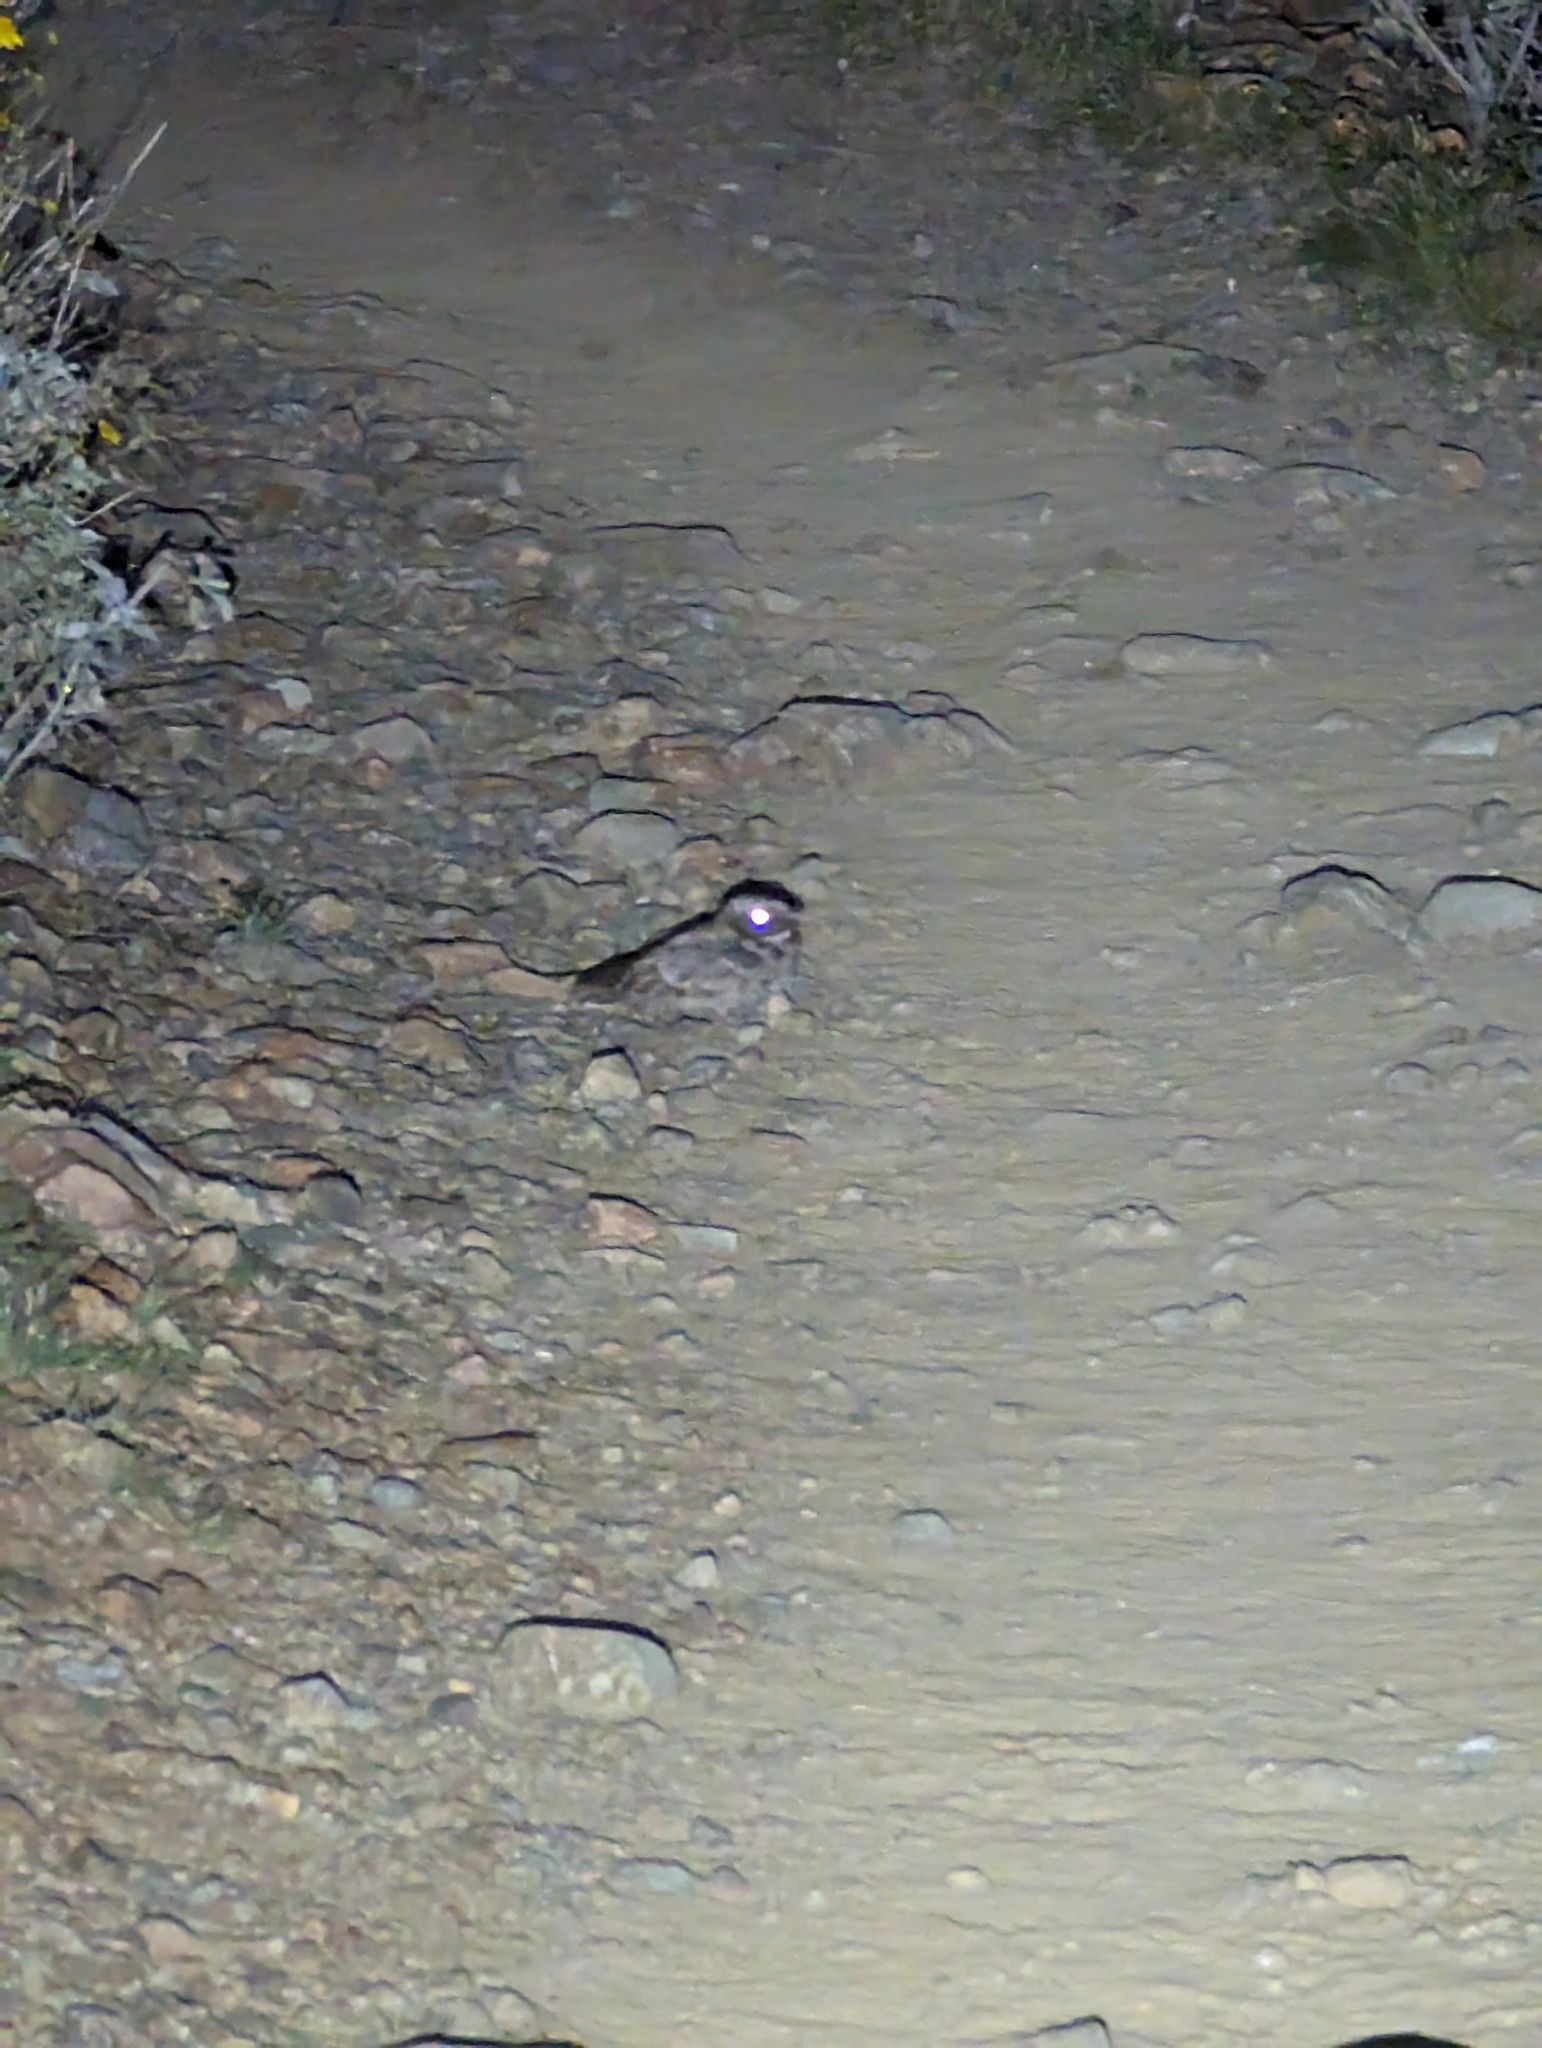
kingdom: Animalia
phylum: Chordata
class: Aves
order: Caprimulgiformes
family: Caprimulgidae
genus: Phalaenoptilus
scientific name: Phalaenoptilus nuttallii
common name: Common poorwill
